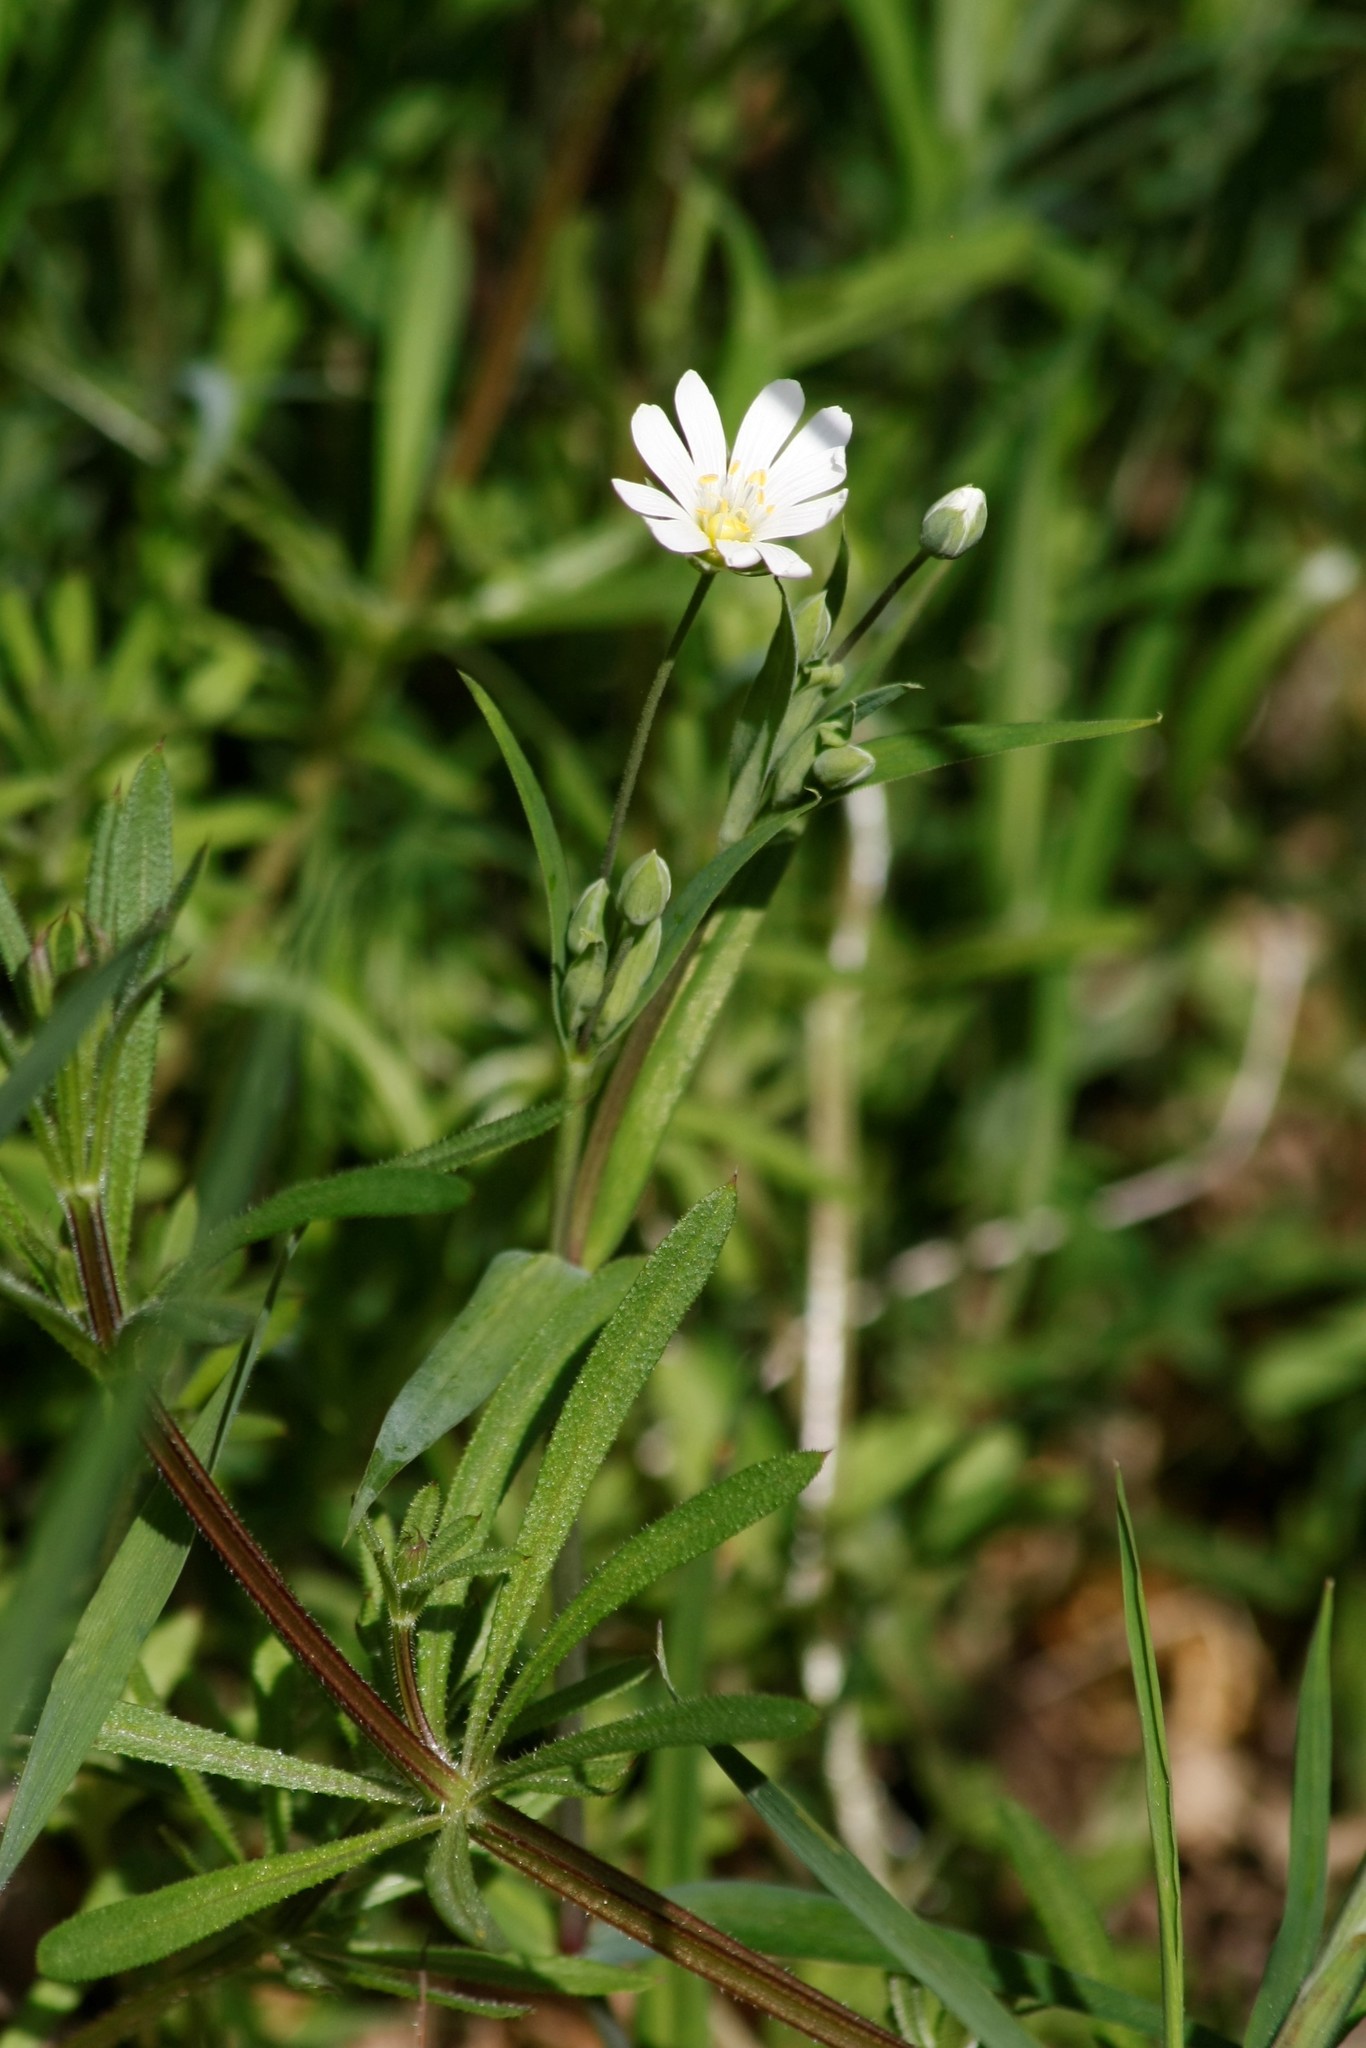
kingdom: Plantae
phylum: Tracheophyta
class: Magnoliopsida
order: Caryophyllales
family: Caryophyllaceae
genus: Rabelera
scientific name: Rabelera holostea
